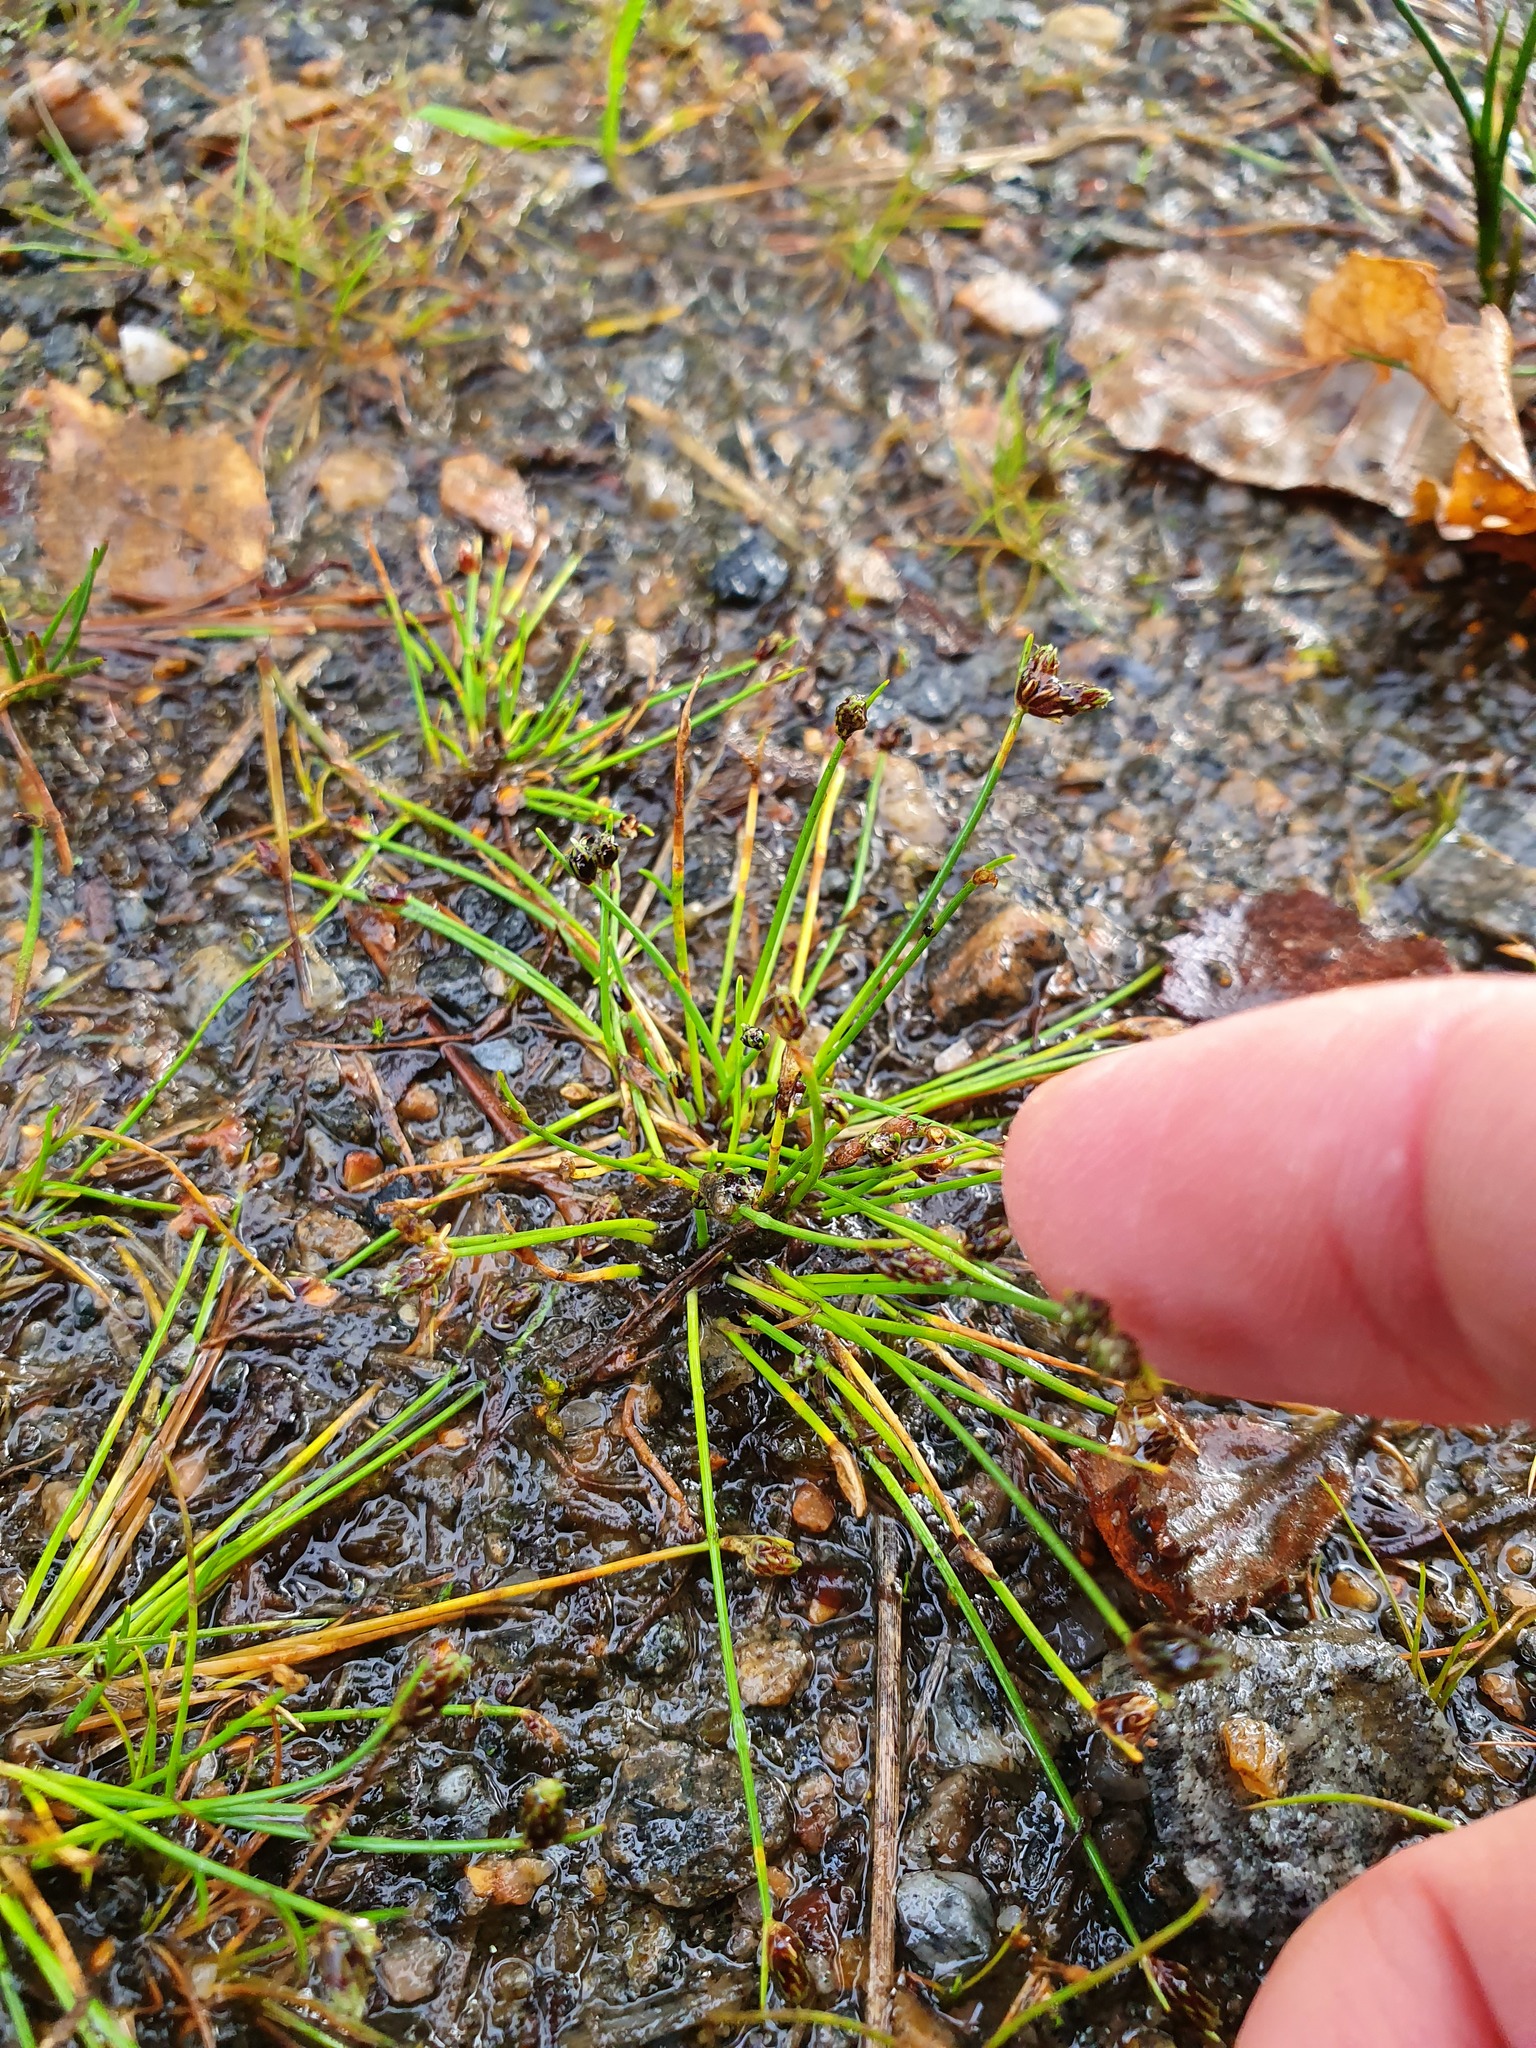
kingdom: Plantae
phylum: Tracheophyta
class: Liliopsida
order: Poales
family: Cyperaceae
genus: Isolepis
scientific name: Isolepis setacea
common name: Bristle club-rush
